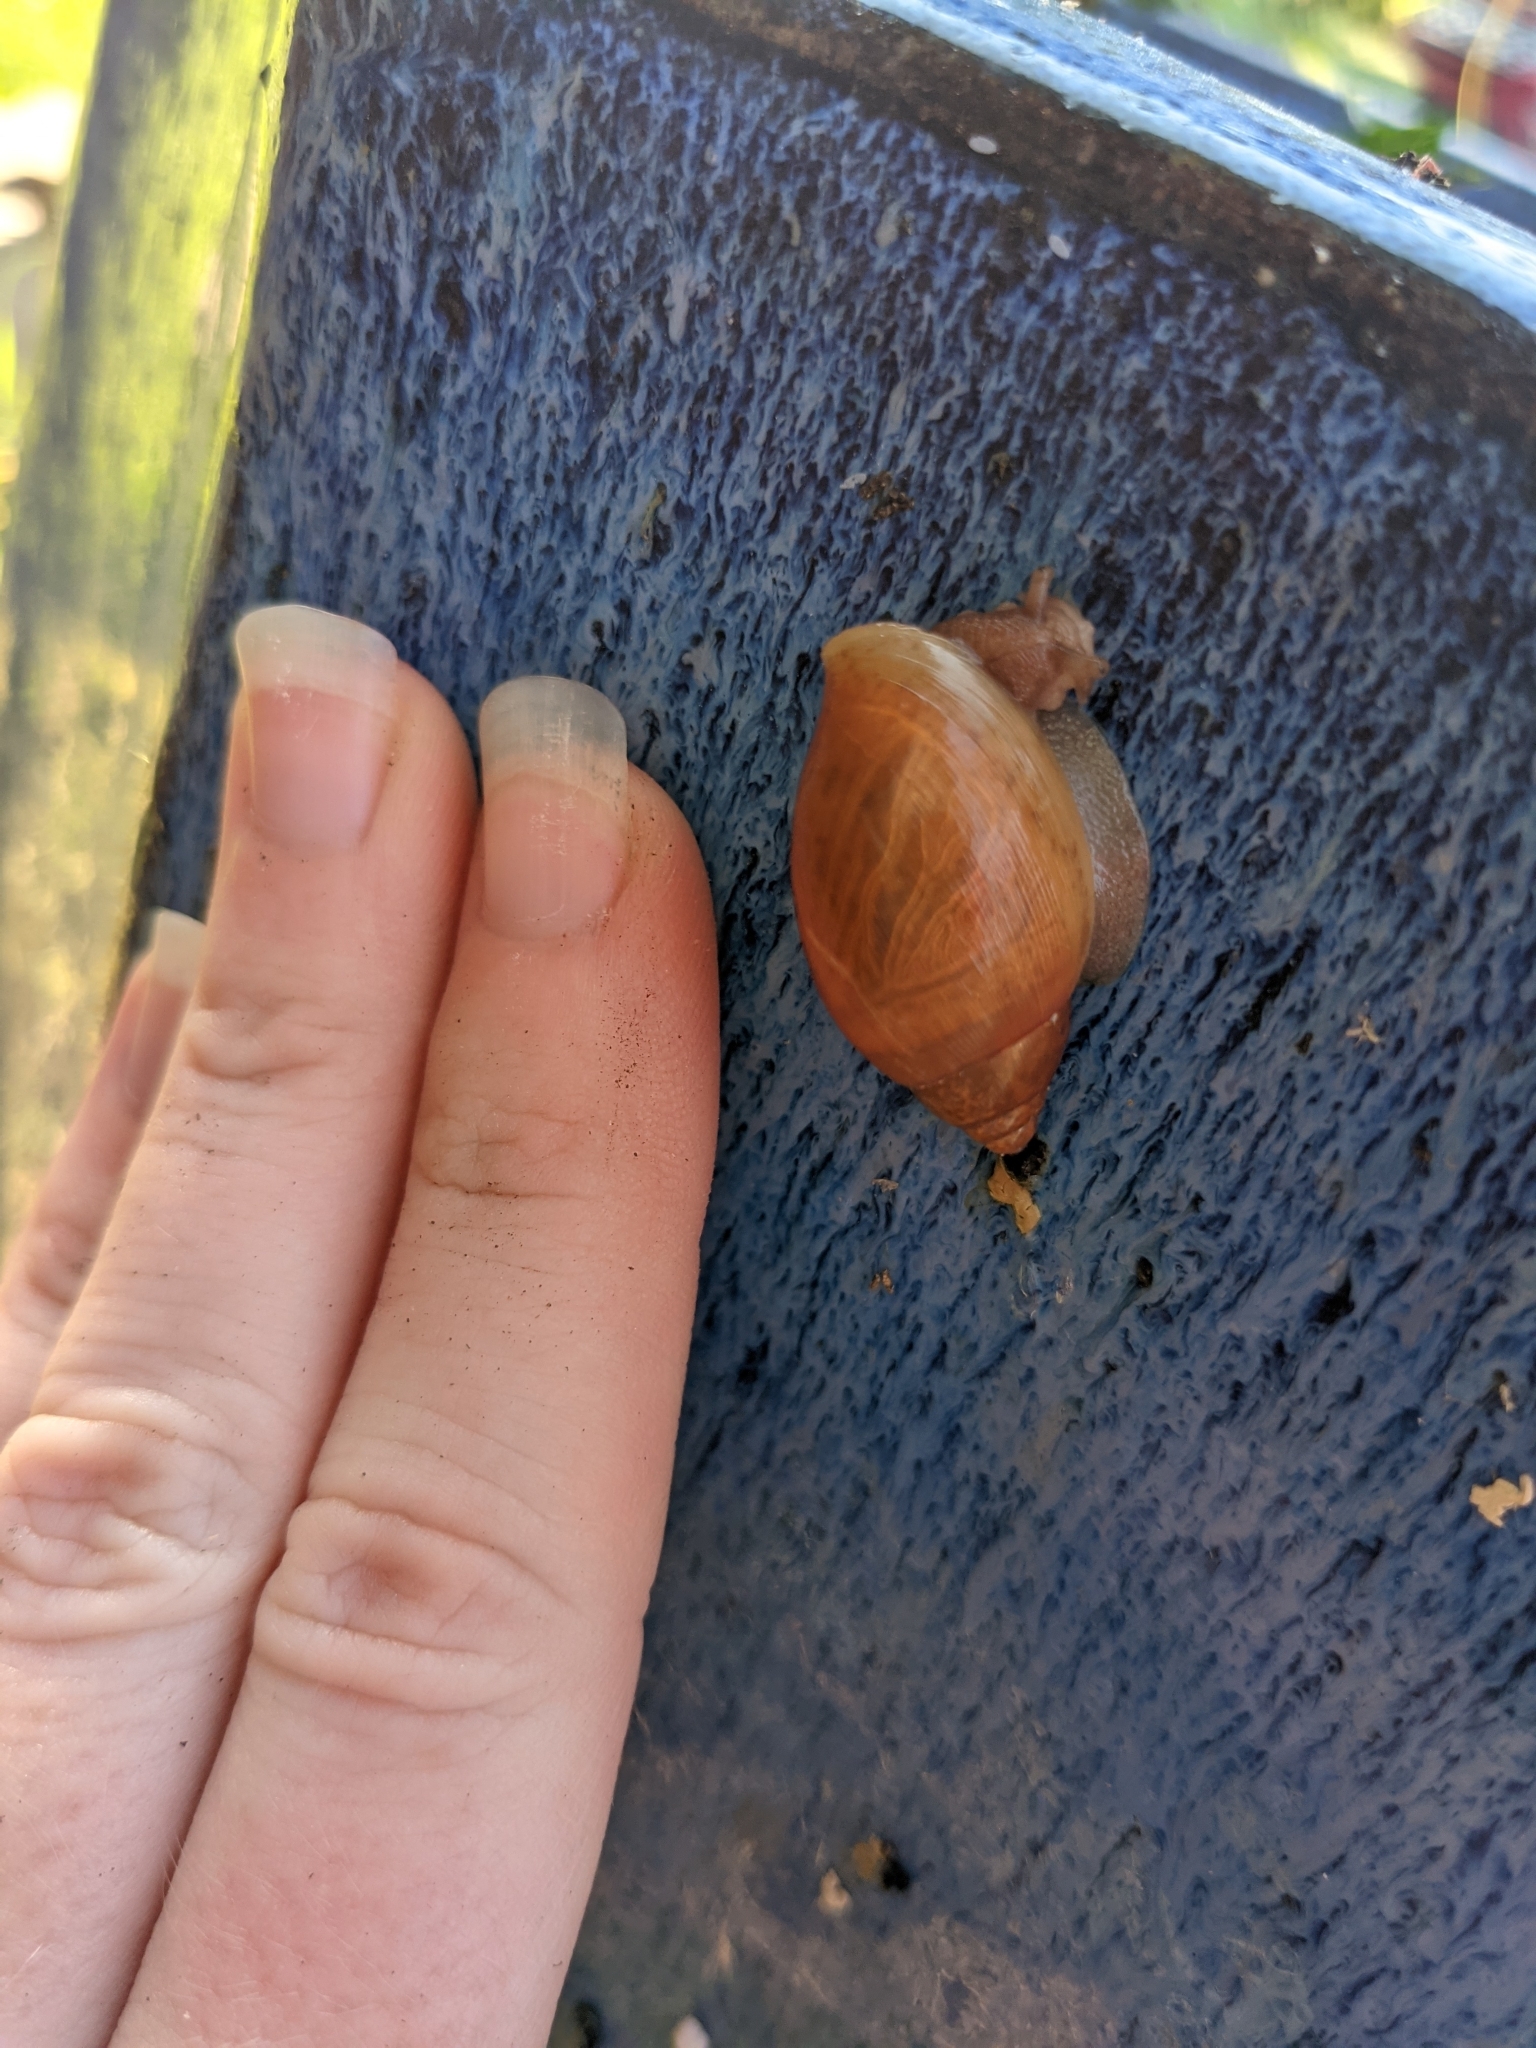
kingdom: Animalia
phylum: Mollusca
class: Gastropoda
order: Stylommatophora
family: Spiraxidae
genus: Euglandina
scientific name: Euglandina rosea
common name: Rosy wolfsnail
